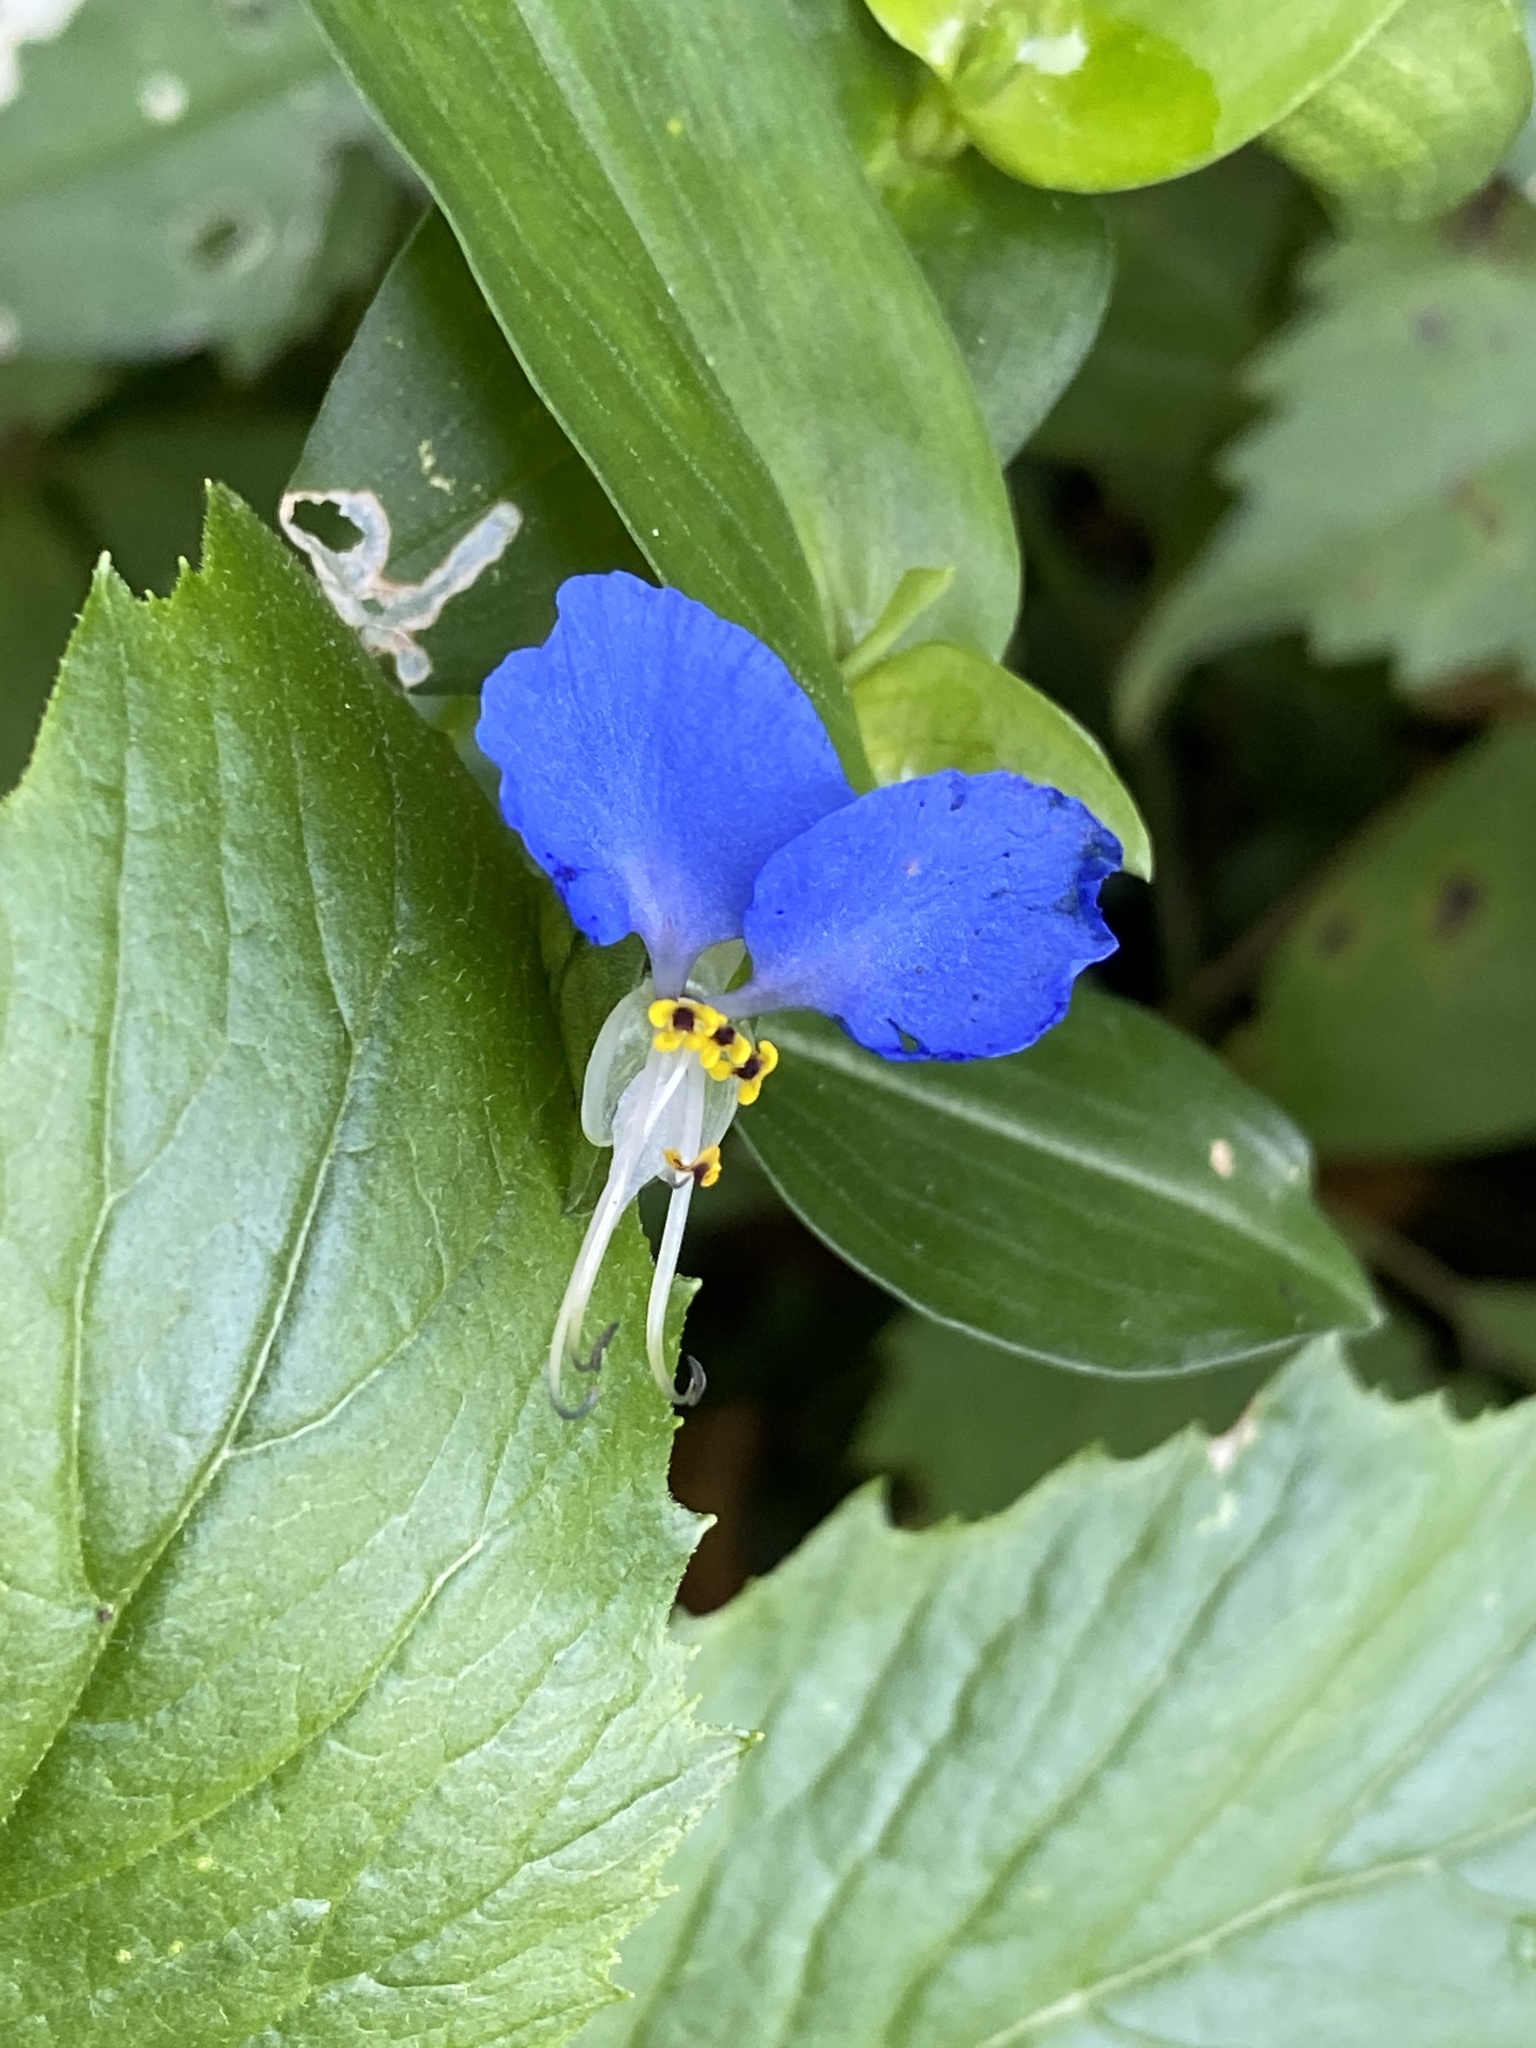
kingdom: Plantae
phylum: Tracheophyta
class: Liliopsida
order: Commelinales
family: Commelinaceae
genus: Commelina
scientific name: Commelina communis
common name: Asiatic dayflower
